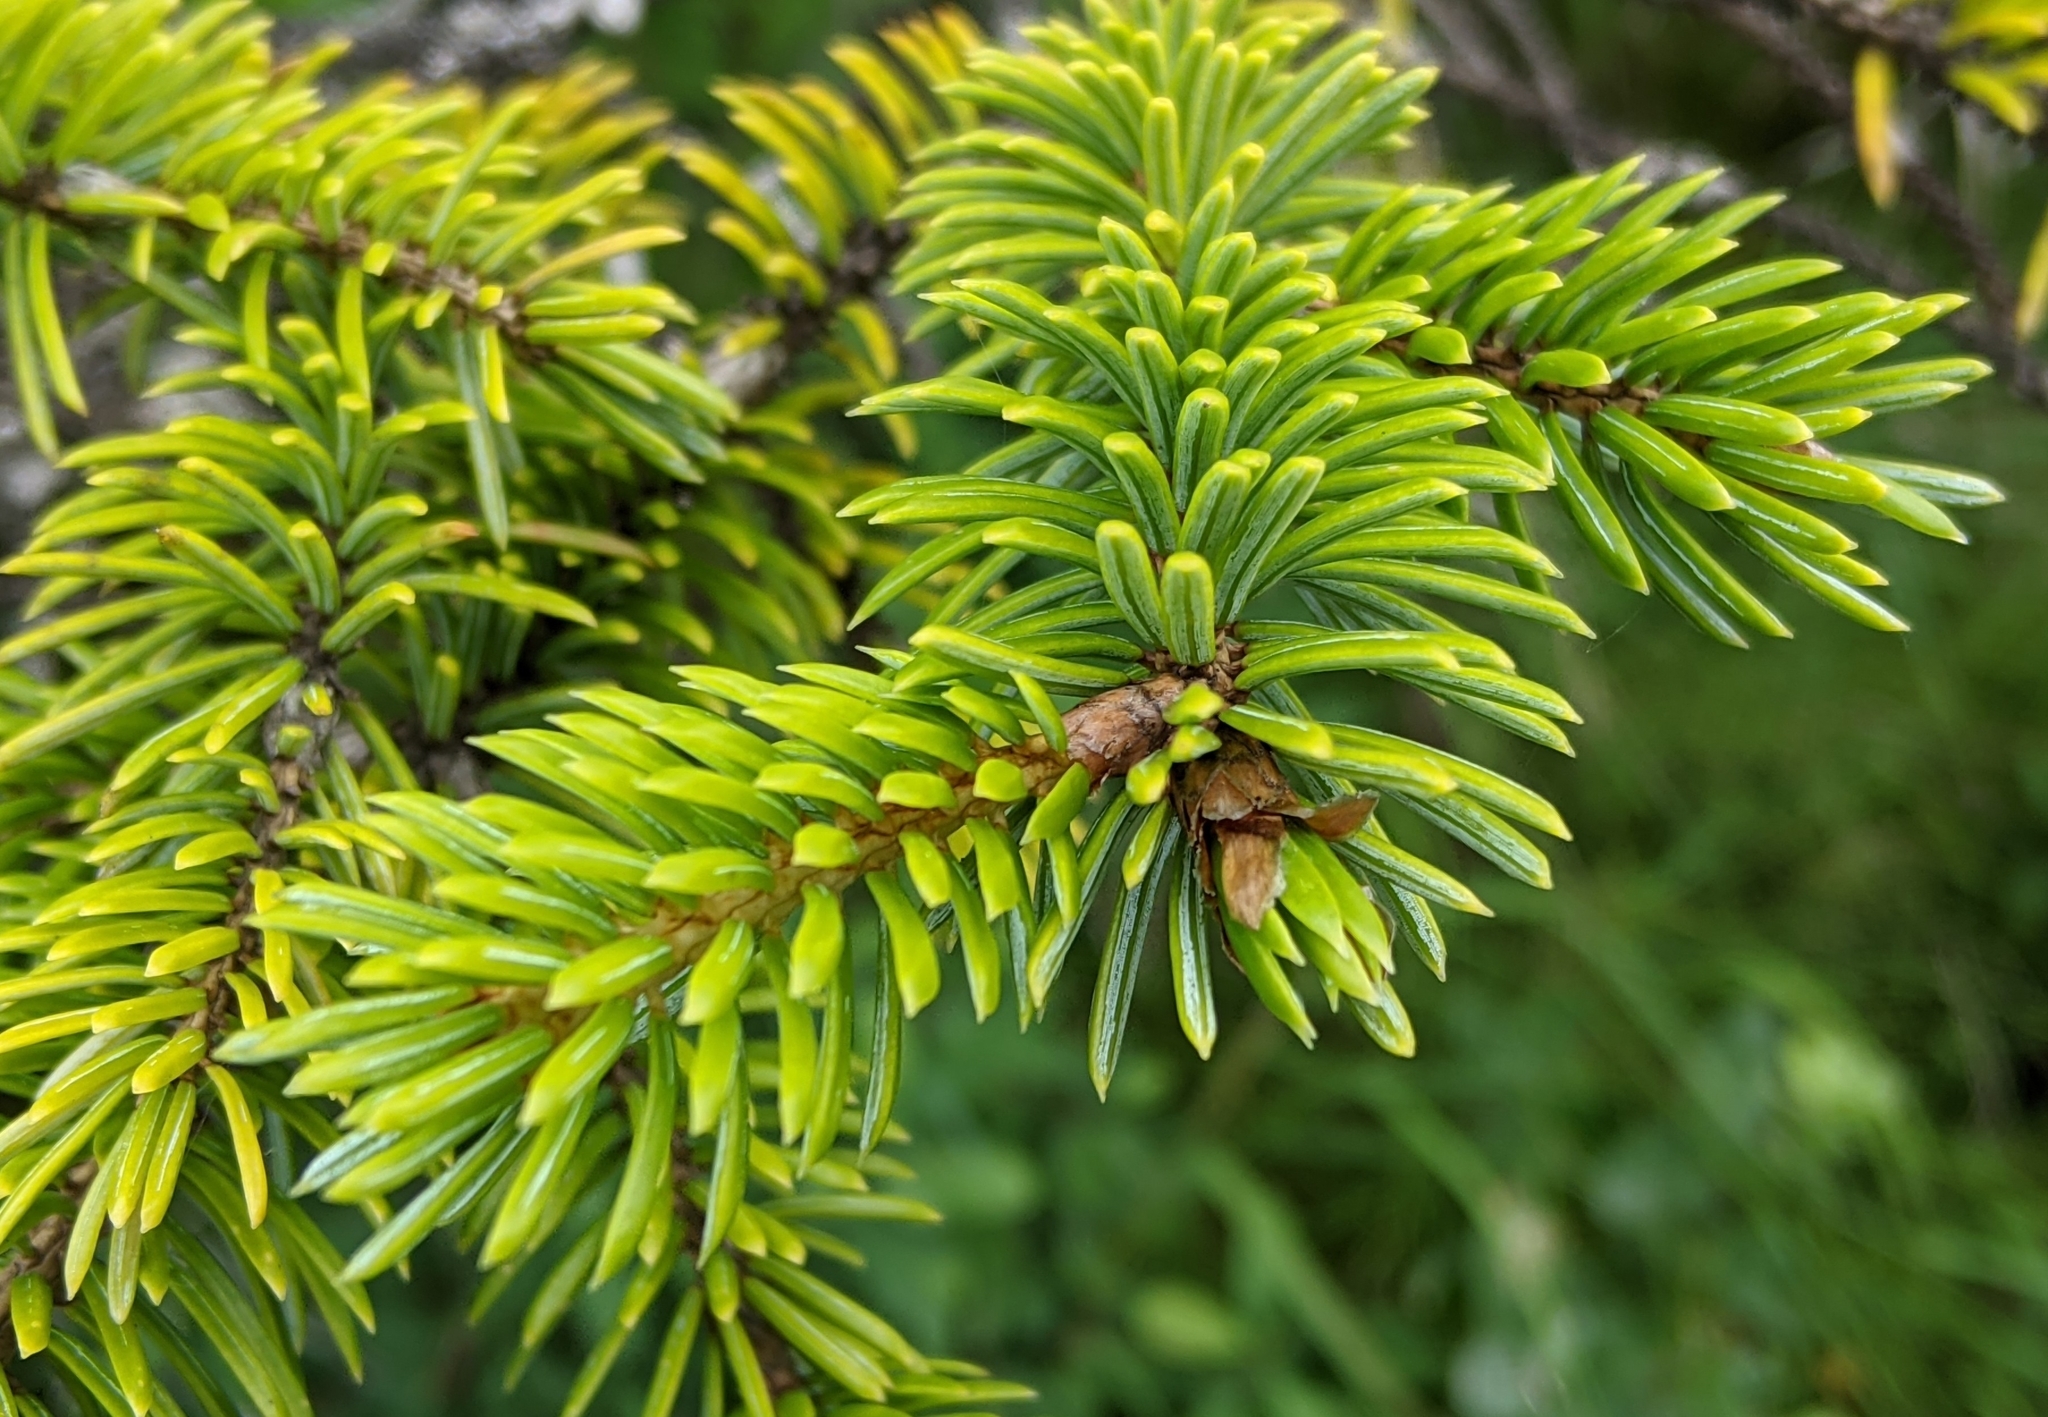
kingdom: Plantae
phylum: Tracheophyta
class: Pinopsida
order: Pinales
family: Pinaceae
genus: Picea
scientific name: Picea sitchensis
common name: Sitka spruce
